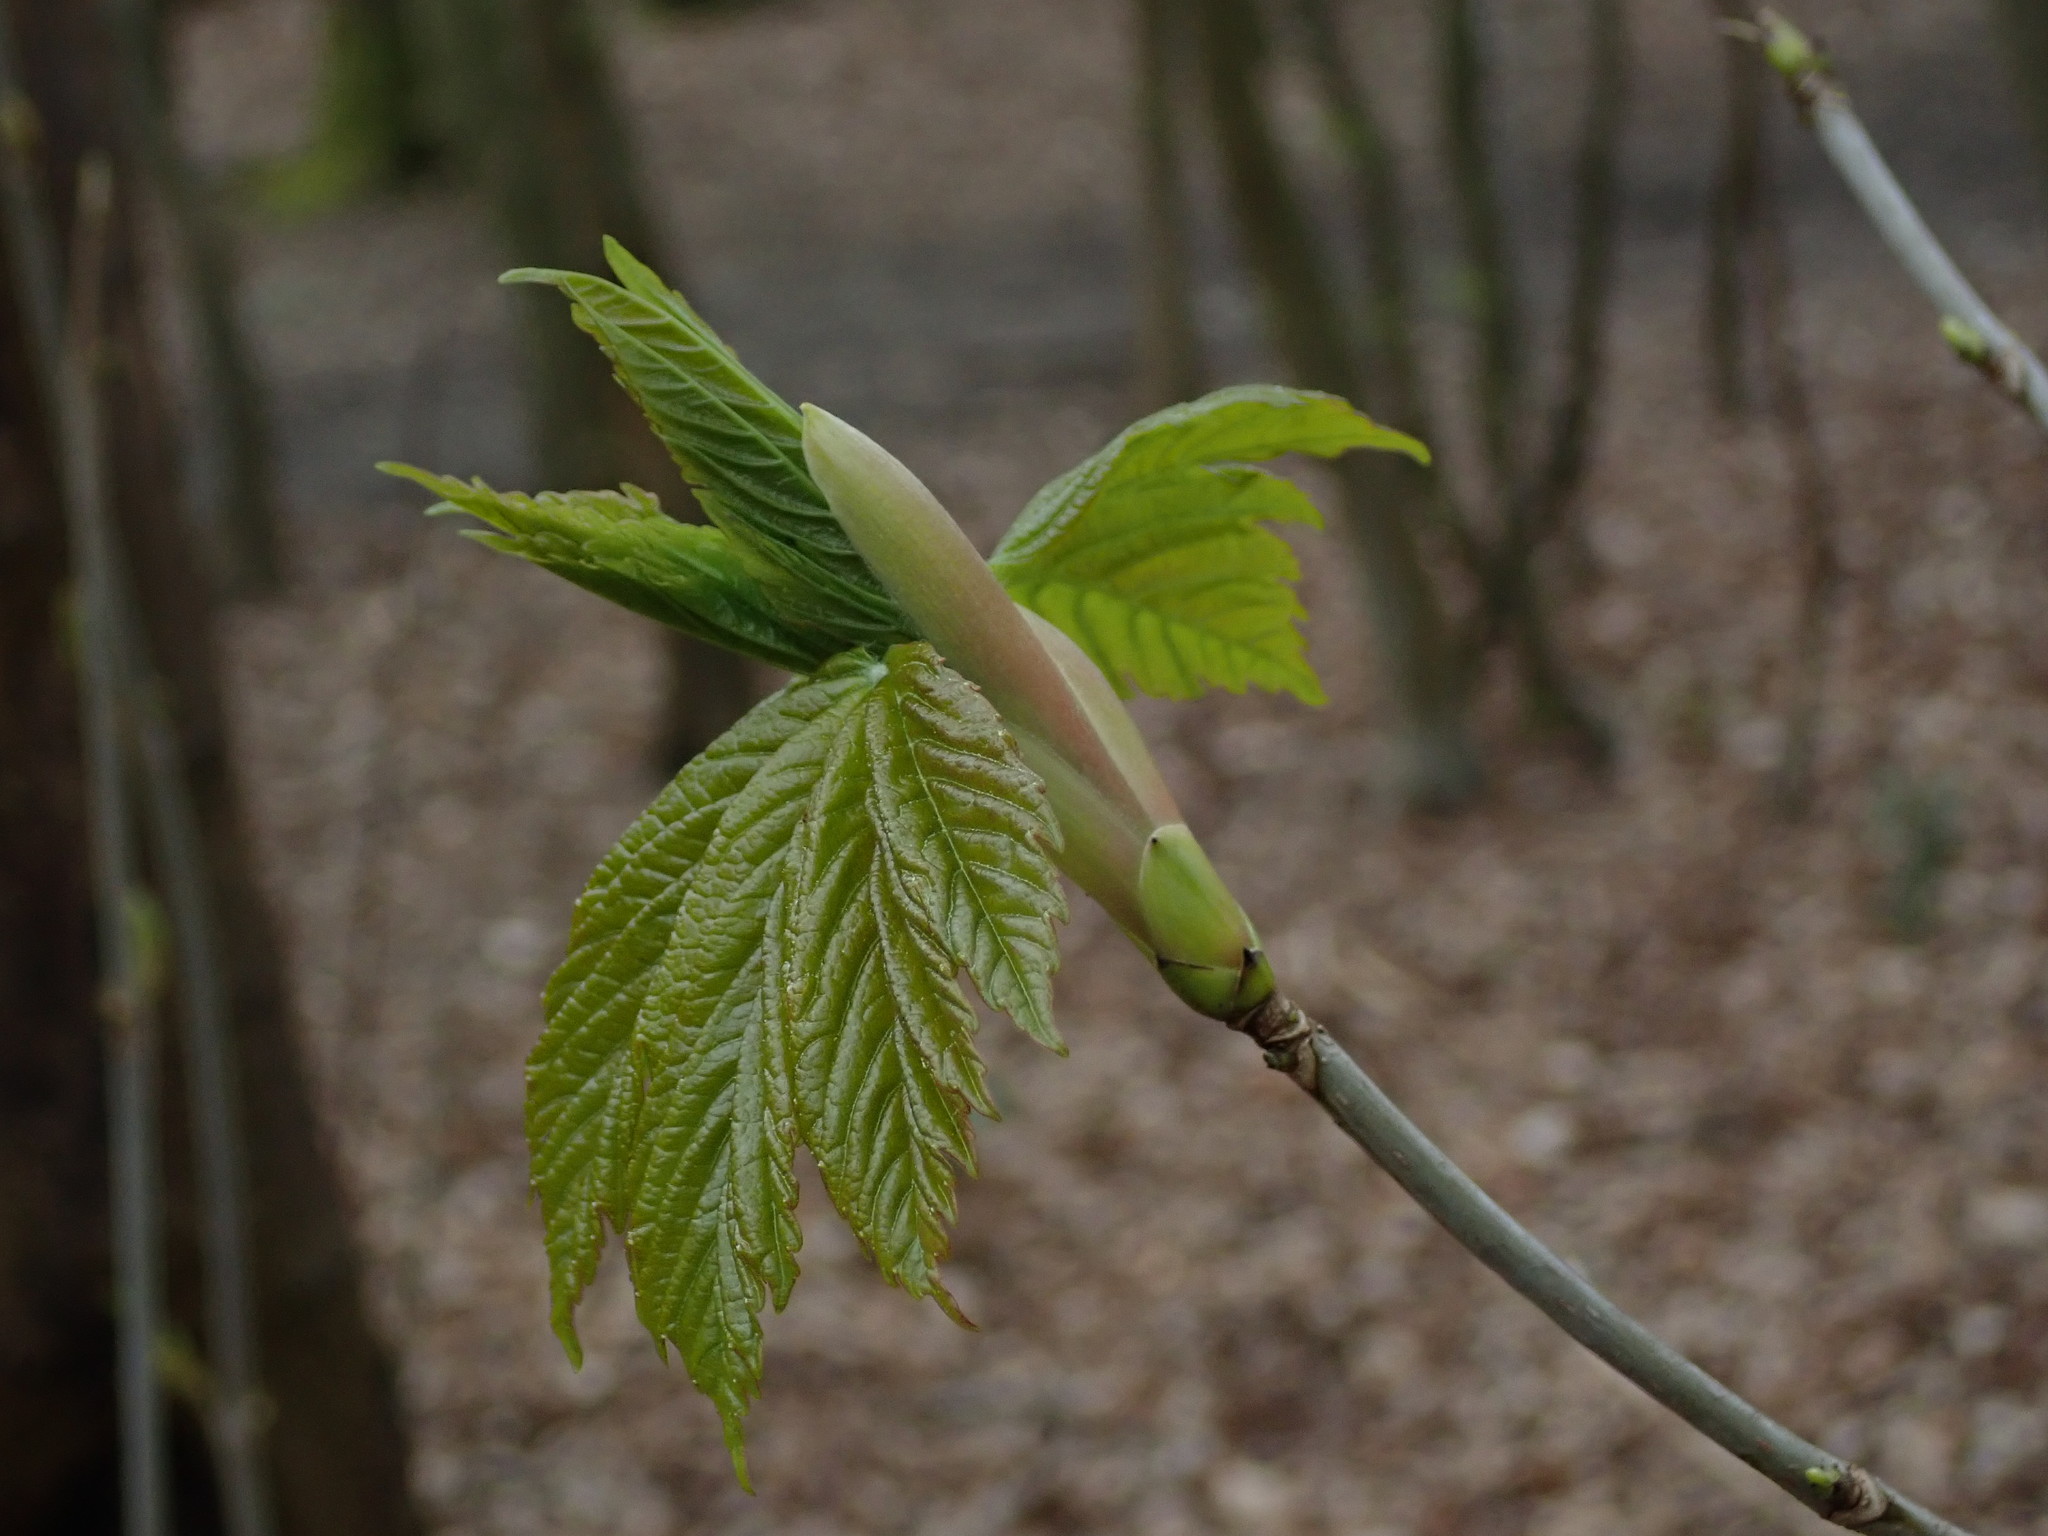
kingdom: Plantae
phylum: Tracheophyta
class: Magnoliopsida
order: Sapindales
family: Sapindaceae
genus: Acer
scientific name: Acer pseudoplatanus
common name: Sycamore
